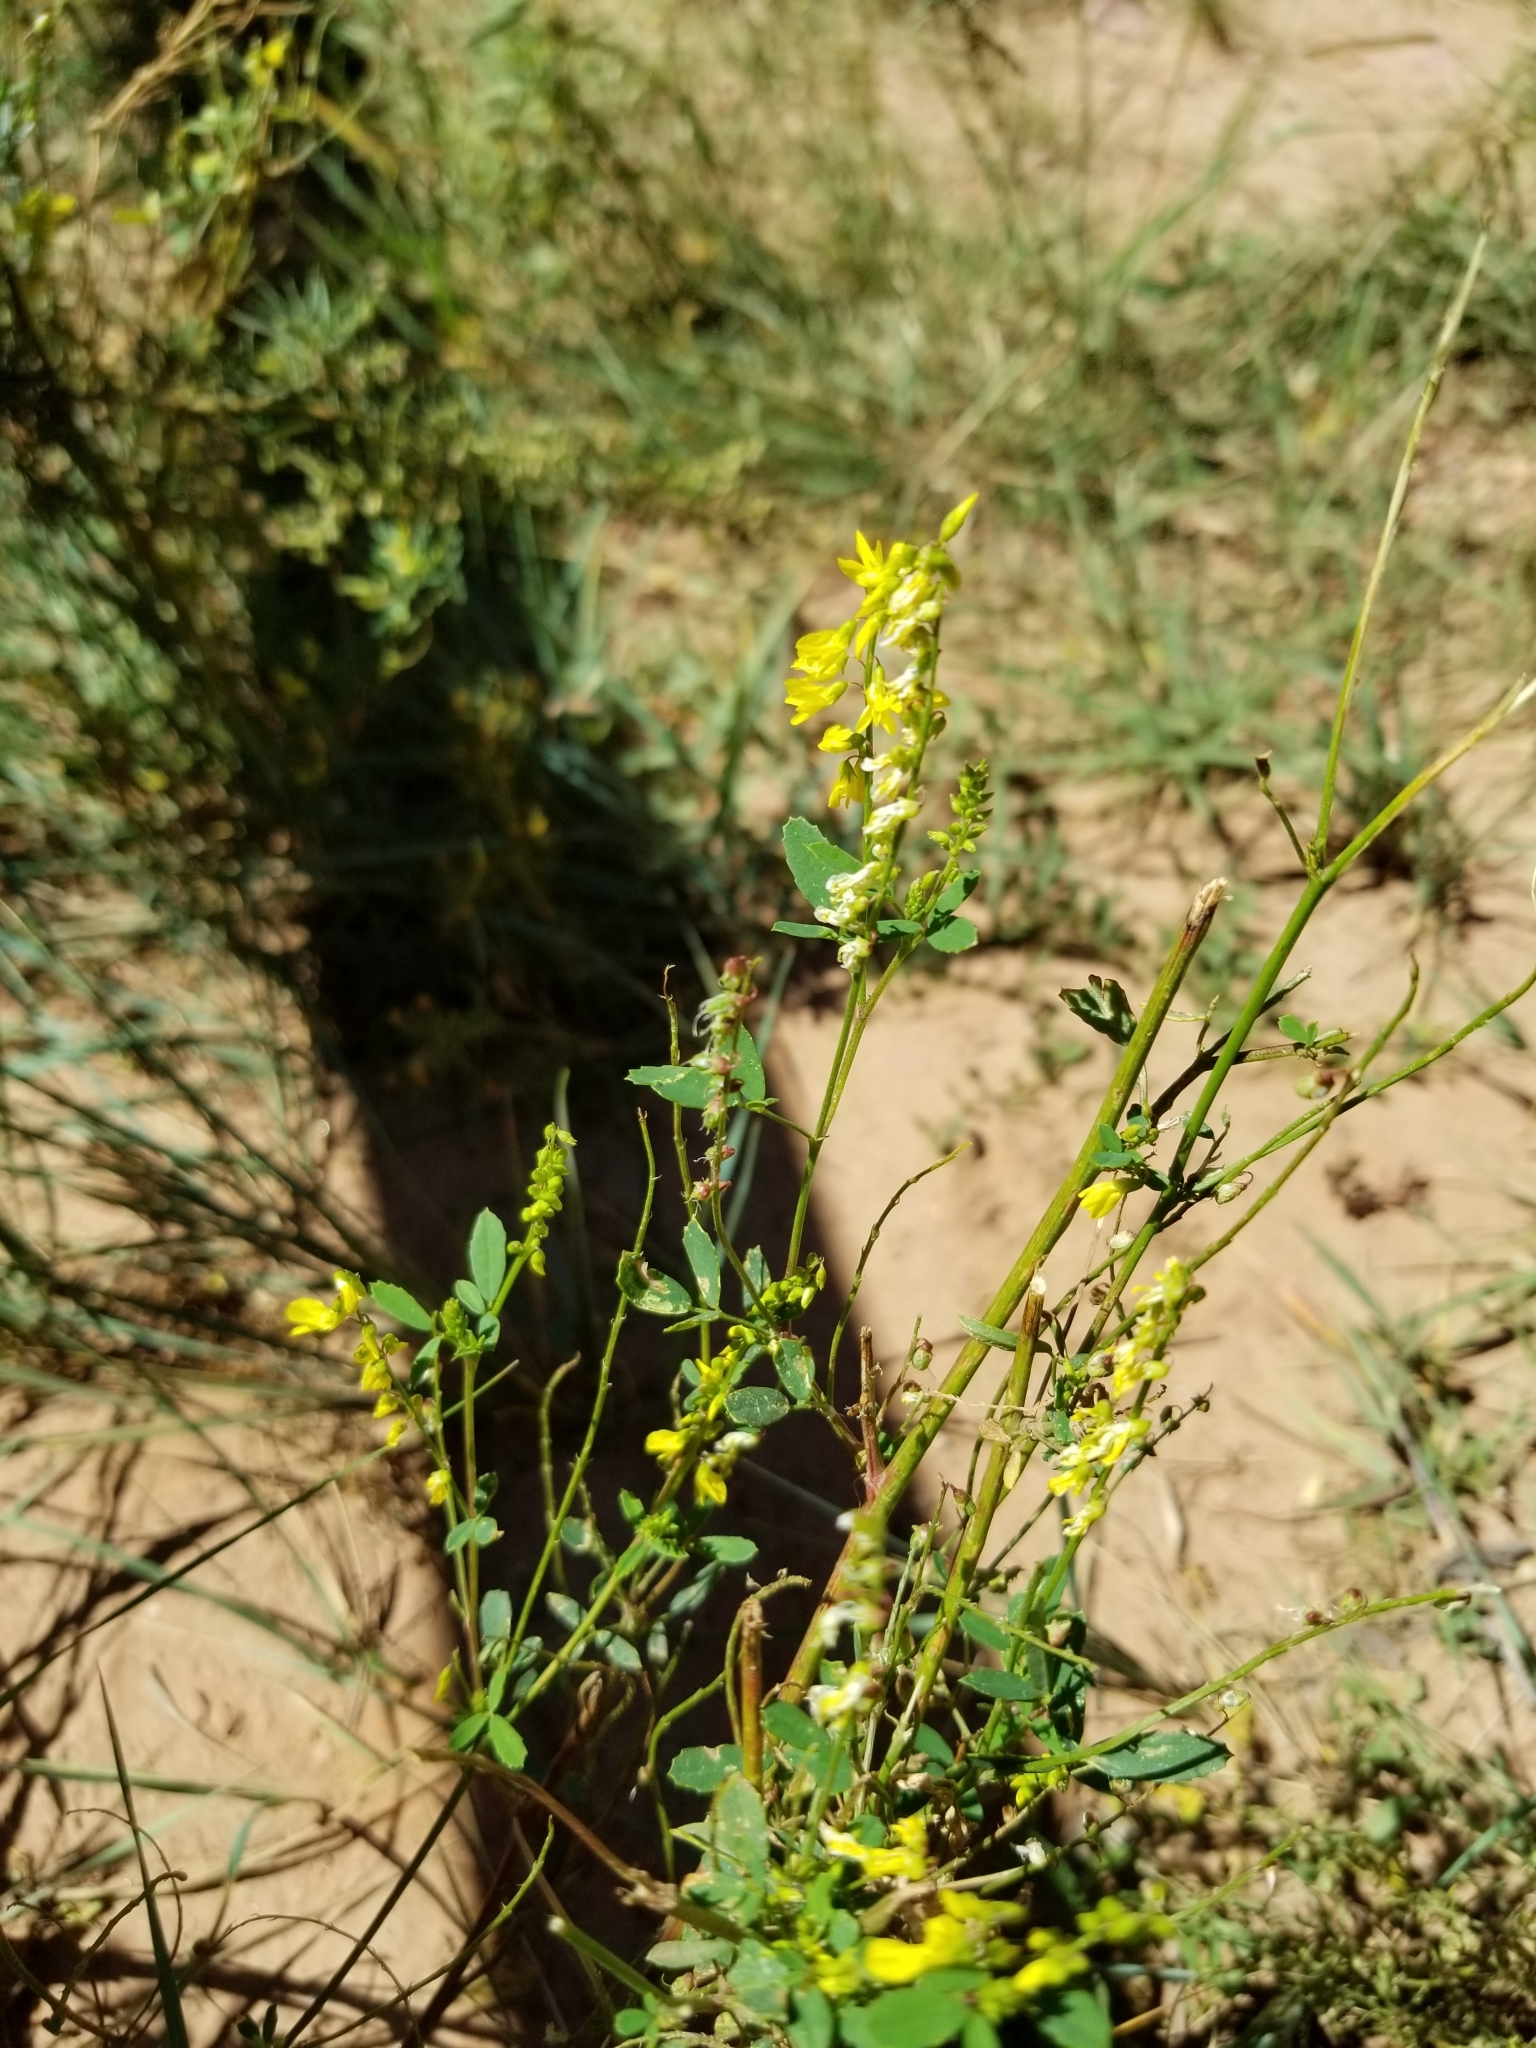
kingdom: Plantae
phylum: Tracheophyta
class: Magnoliopsida
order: Fabales
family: Fabaceae
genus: Melilotus
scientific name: Melilotus officinalis
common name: Sweetclover
